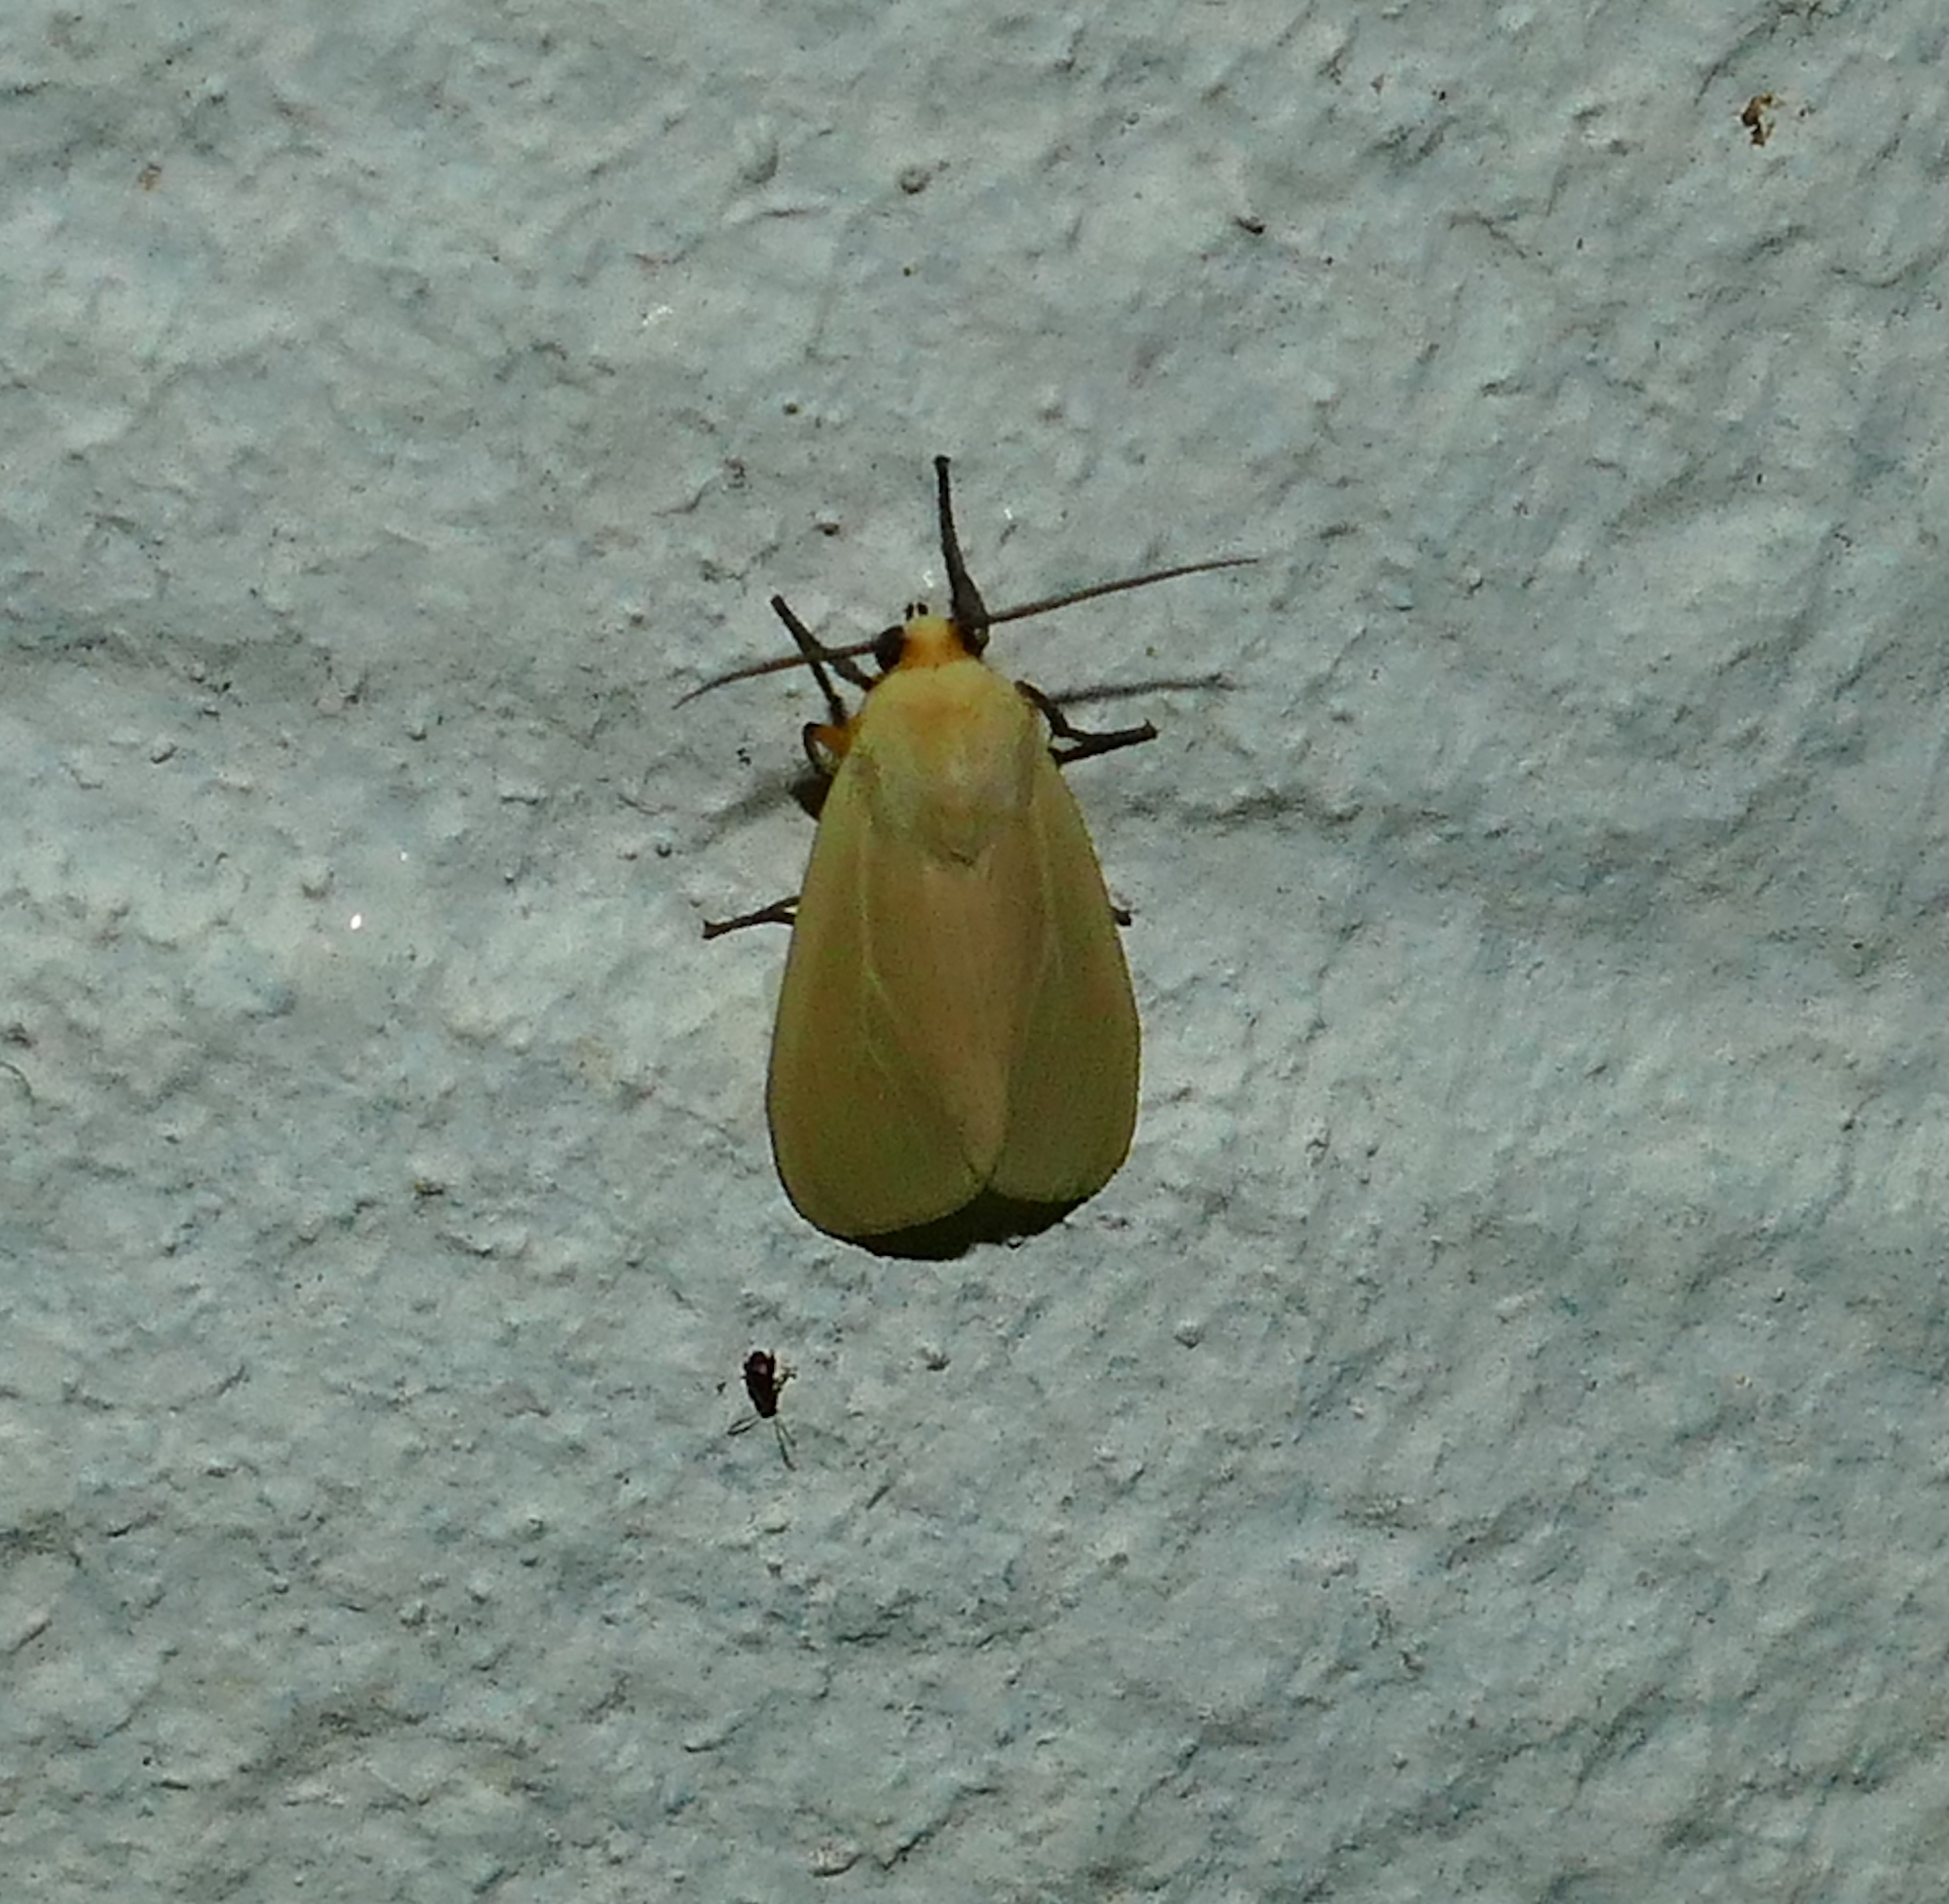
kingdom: Animalia
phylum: Arthropoda
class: Insecta
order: Lepidoptera
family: Erebidae
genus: Pareuchaetes
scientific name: Pareuchaetes insulata
